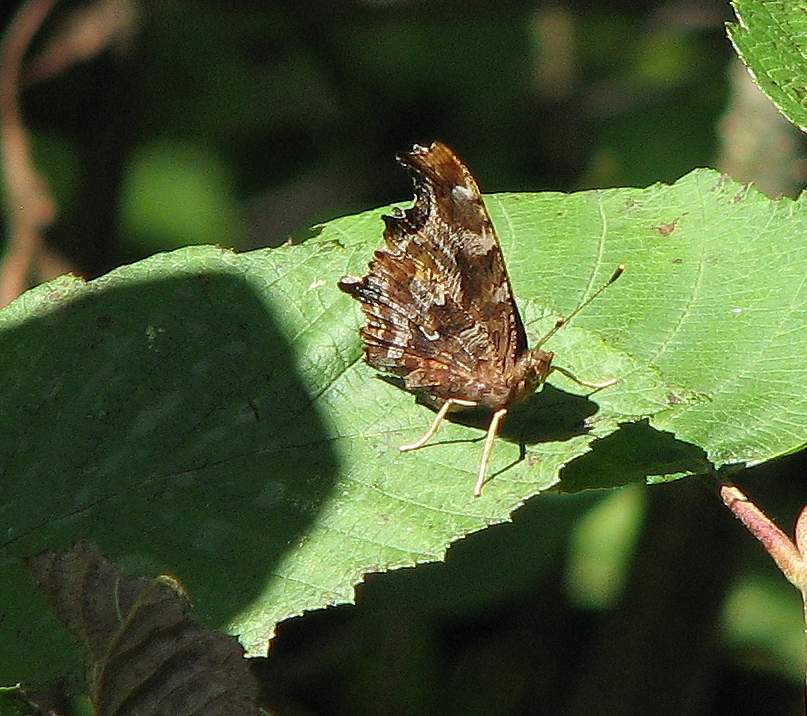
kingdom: Animalia
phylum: Arthropoda
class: Insecta
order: Lepidoptera
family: Nymphalidae
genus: Polygonia
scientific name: Polygonia comma
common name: Eastern comma
